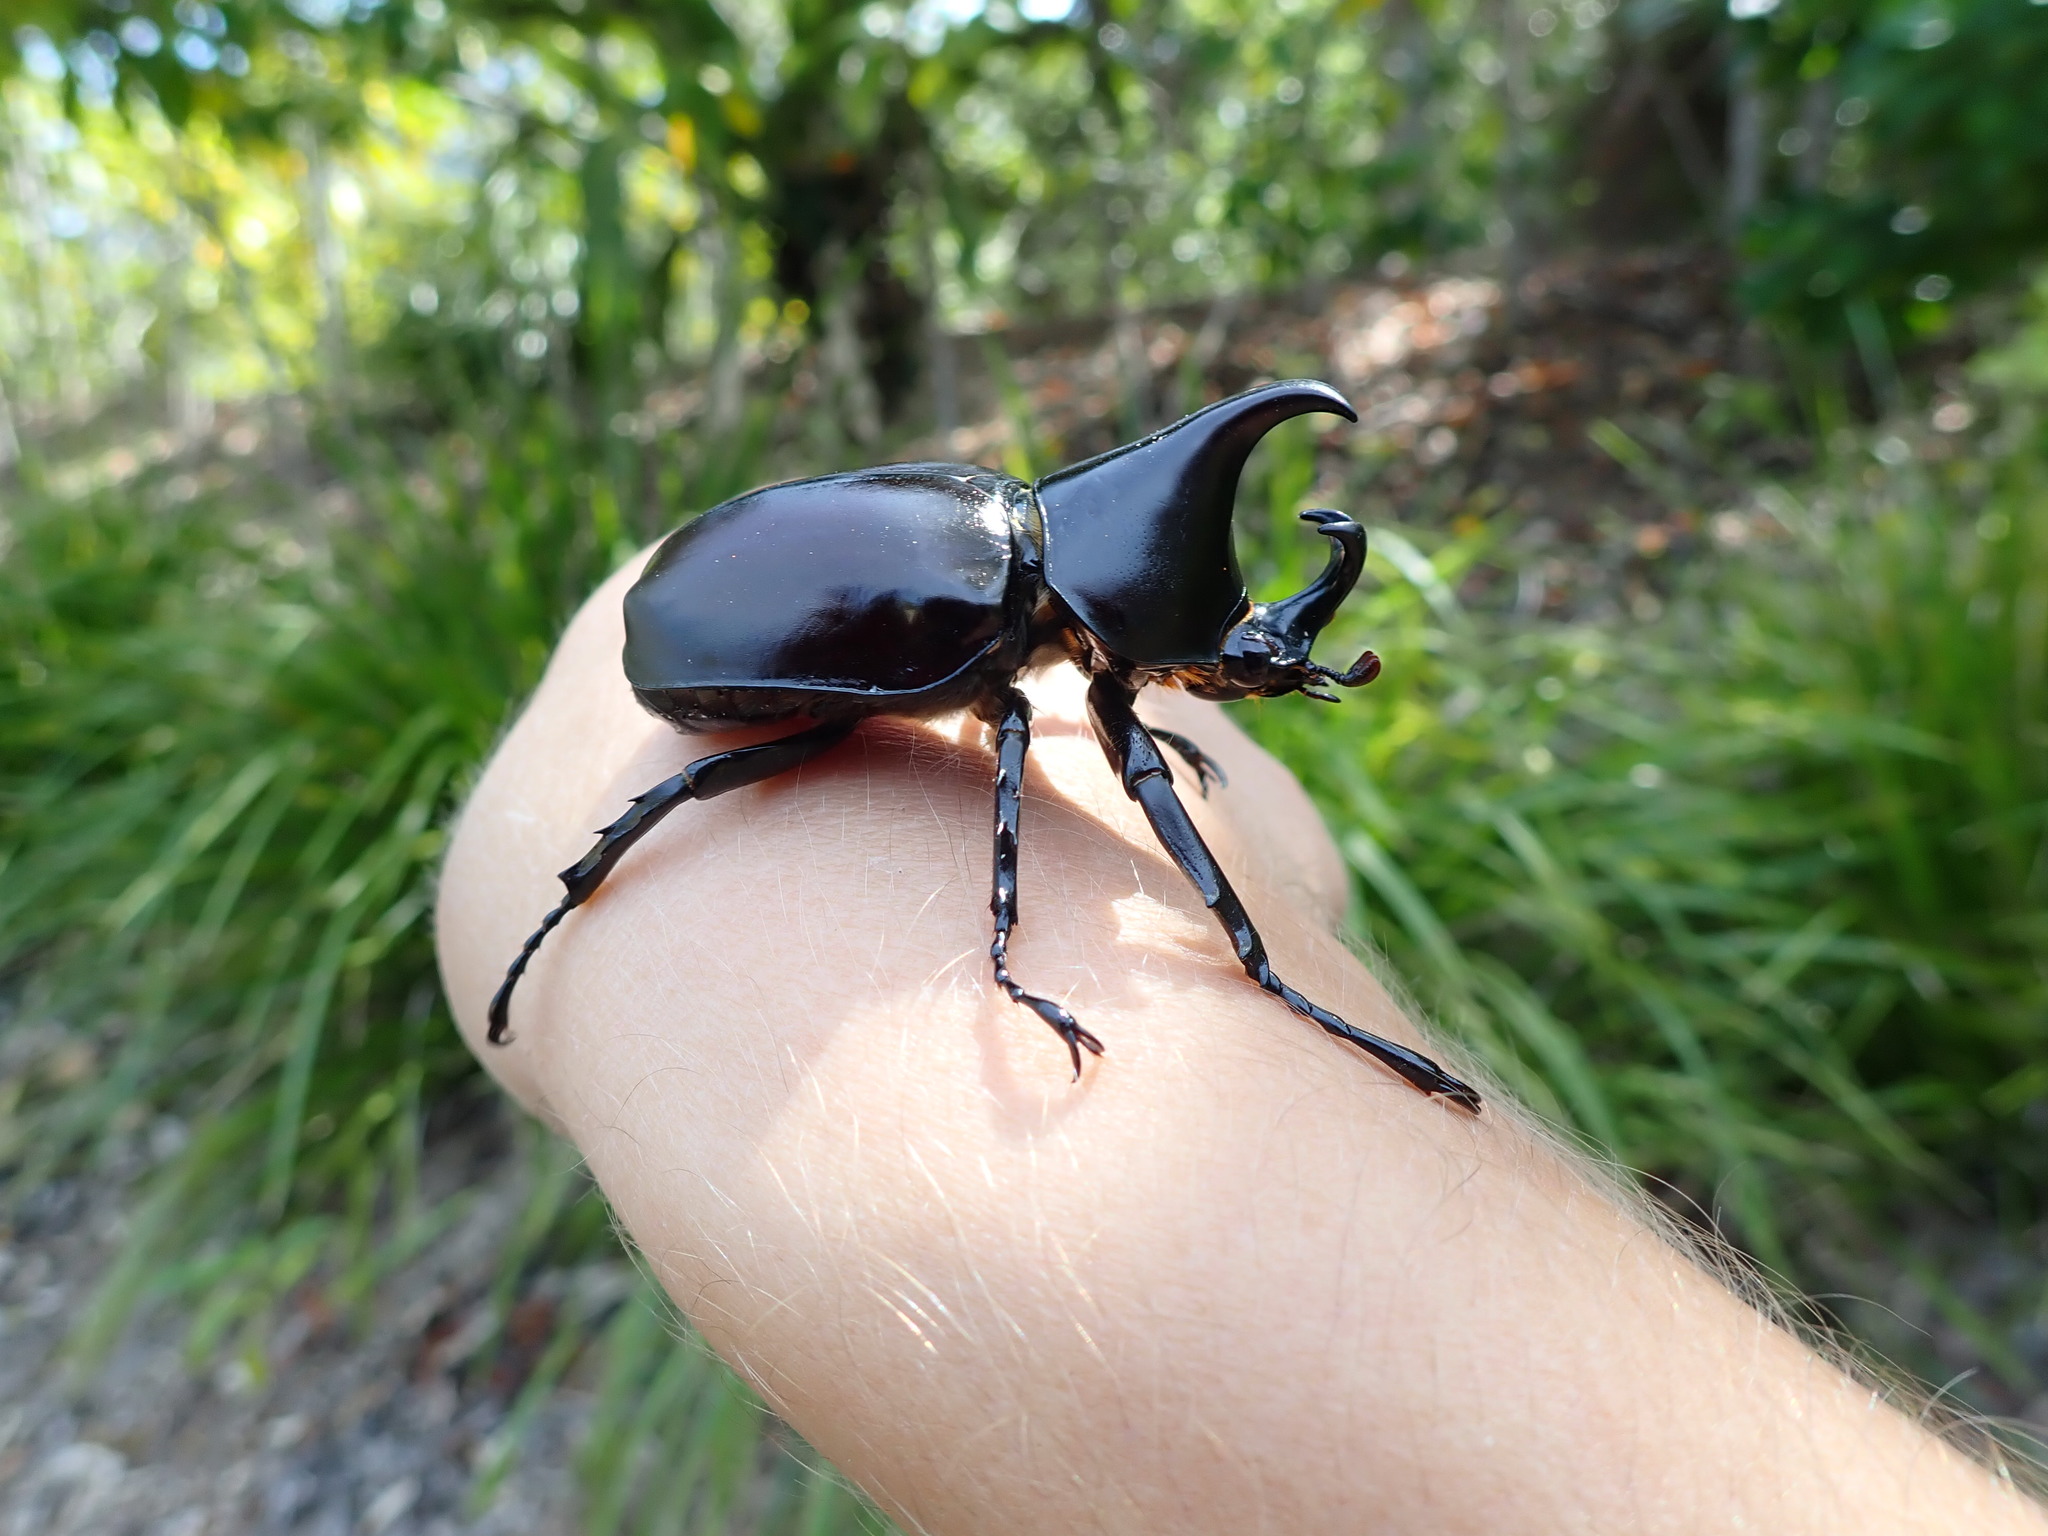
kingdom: Animalia
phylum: Arthropoda
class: Insecta
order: Coleoptera
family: Scarabaeidae
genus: Xylotrupes
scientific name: Xylotrupes australicus
